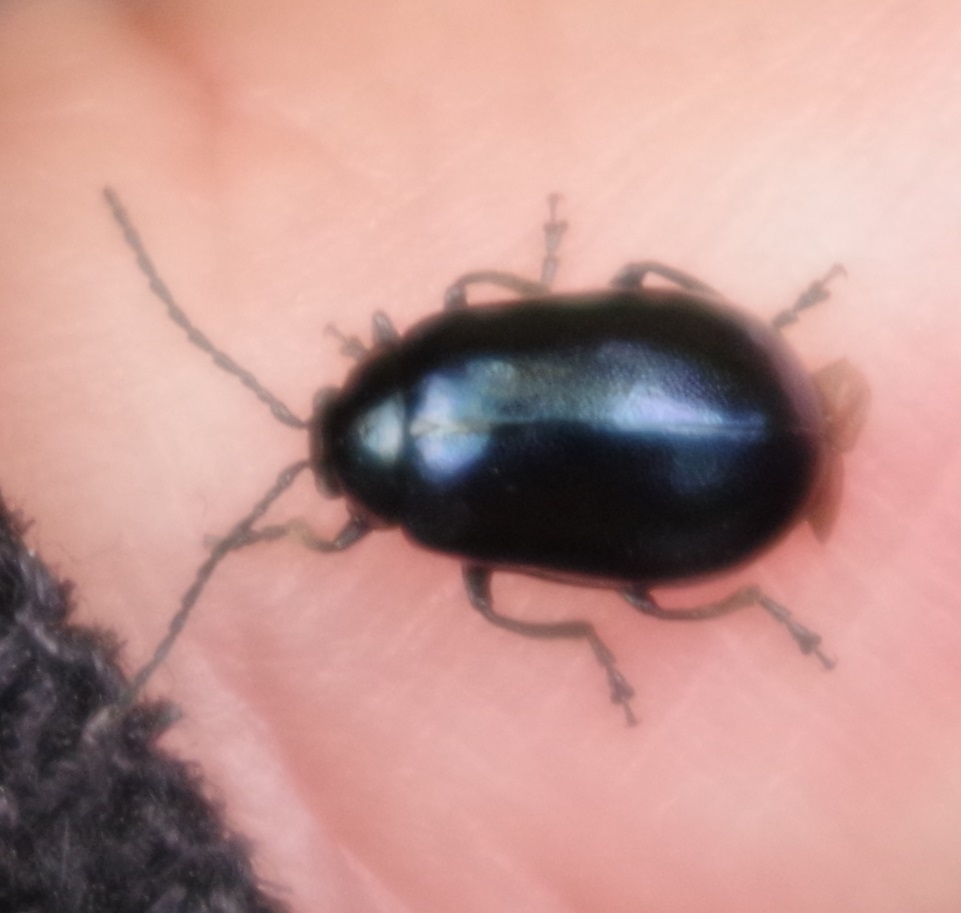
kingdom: Animalia
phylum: Arthropoda
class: Insecta
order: Coleoptera
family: Chrysomelidae
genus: Agelastica
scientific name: Agelastica alni
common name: Alder leaf beetle
